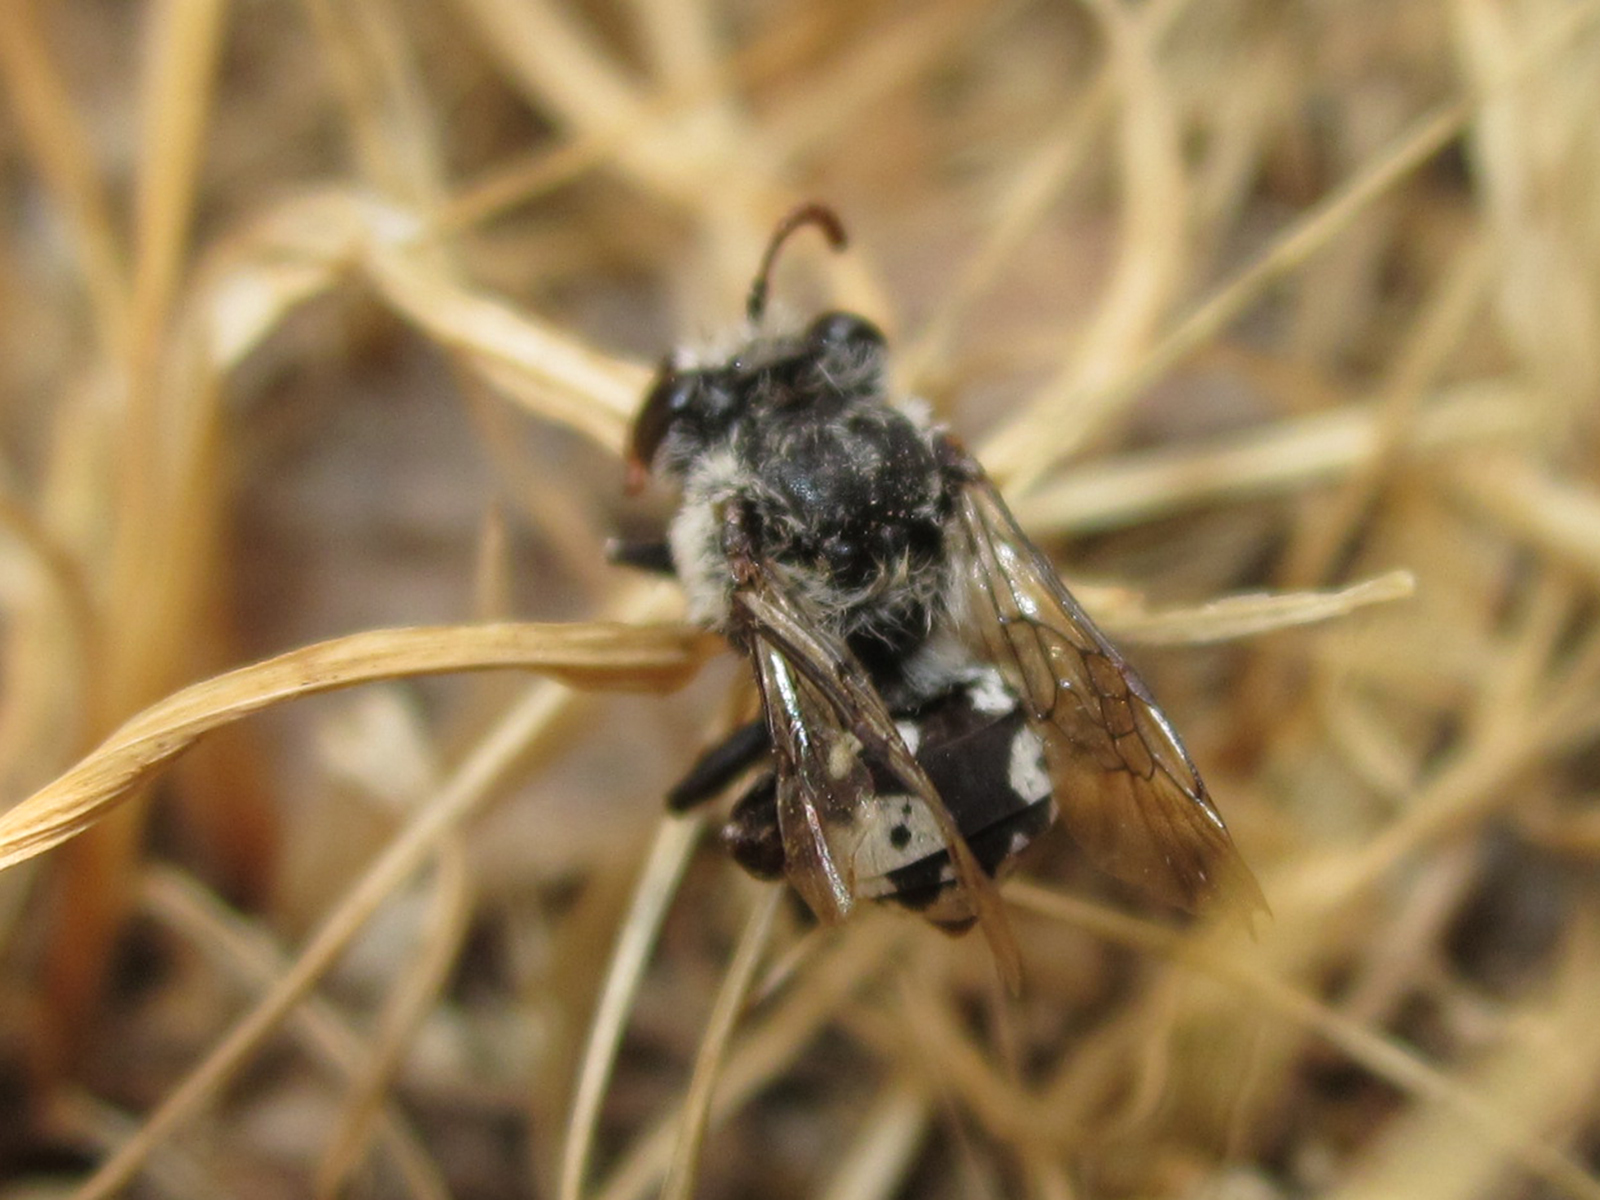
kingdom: Animalia
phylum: Arthropoda
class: Insecta
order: Hymenoptera
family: Apidae
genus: Isepeolus
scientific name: Isepeolus luctuosus
